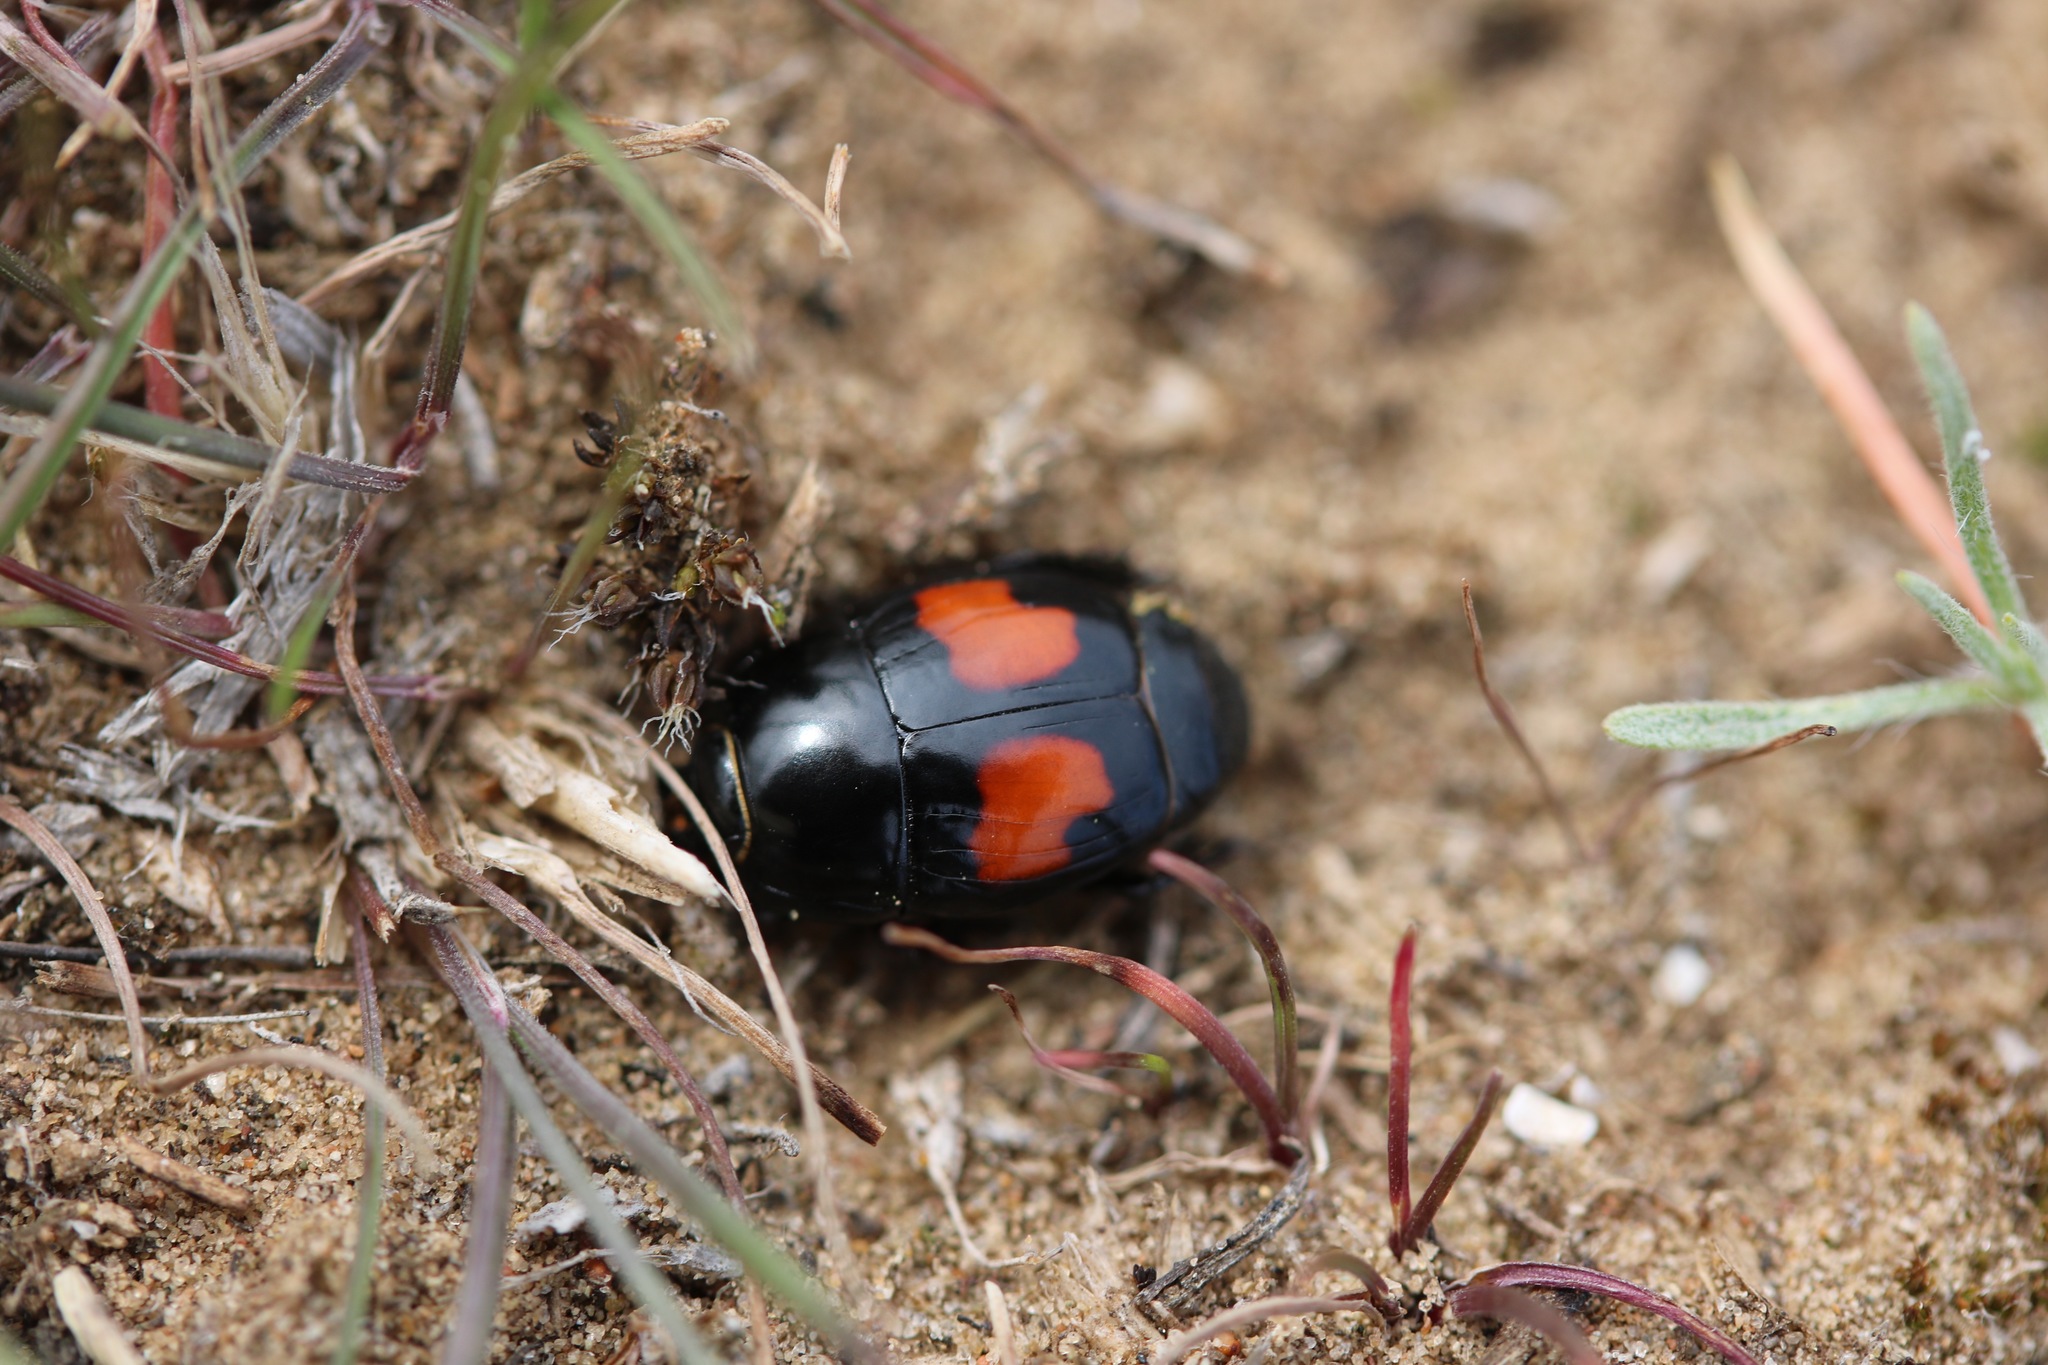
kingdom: Animalia
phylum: Arthropoda
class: Insecta
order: Coleoptera
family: Histeridae
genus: Margarinotus
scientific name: Margarinotus bipustulatus
